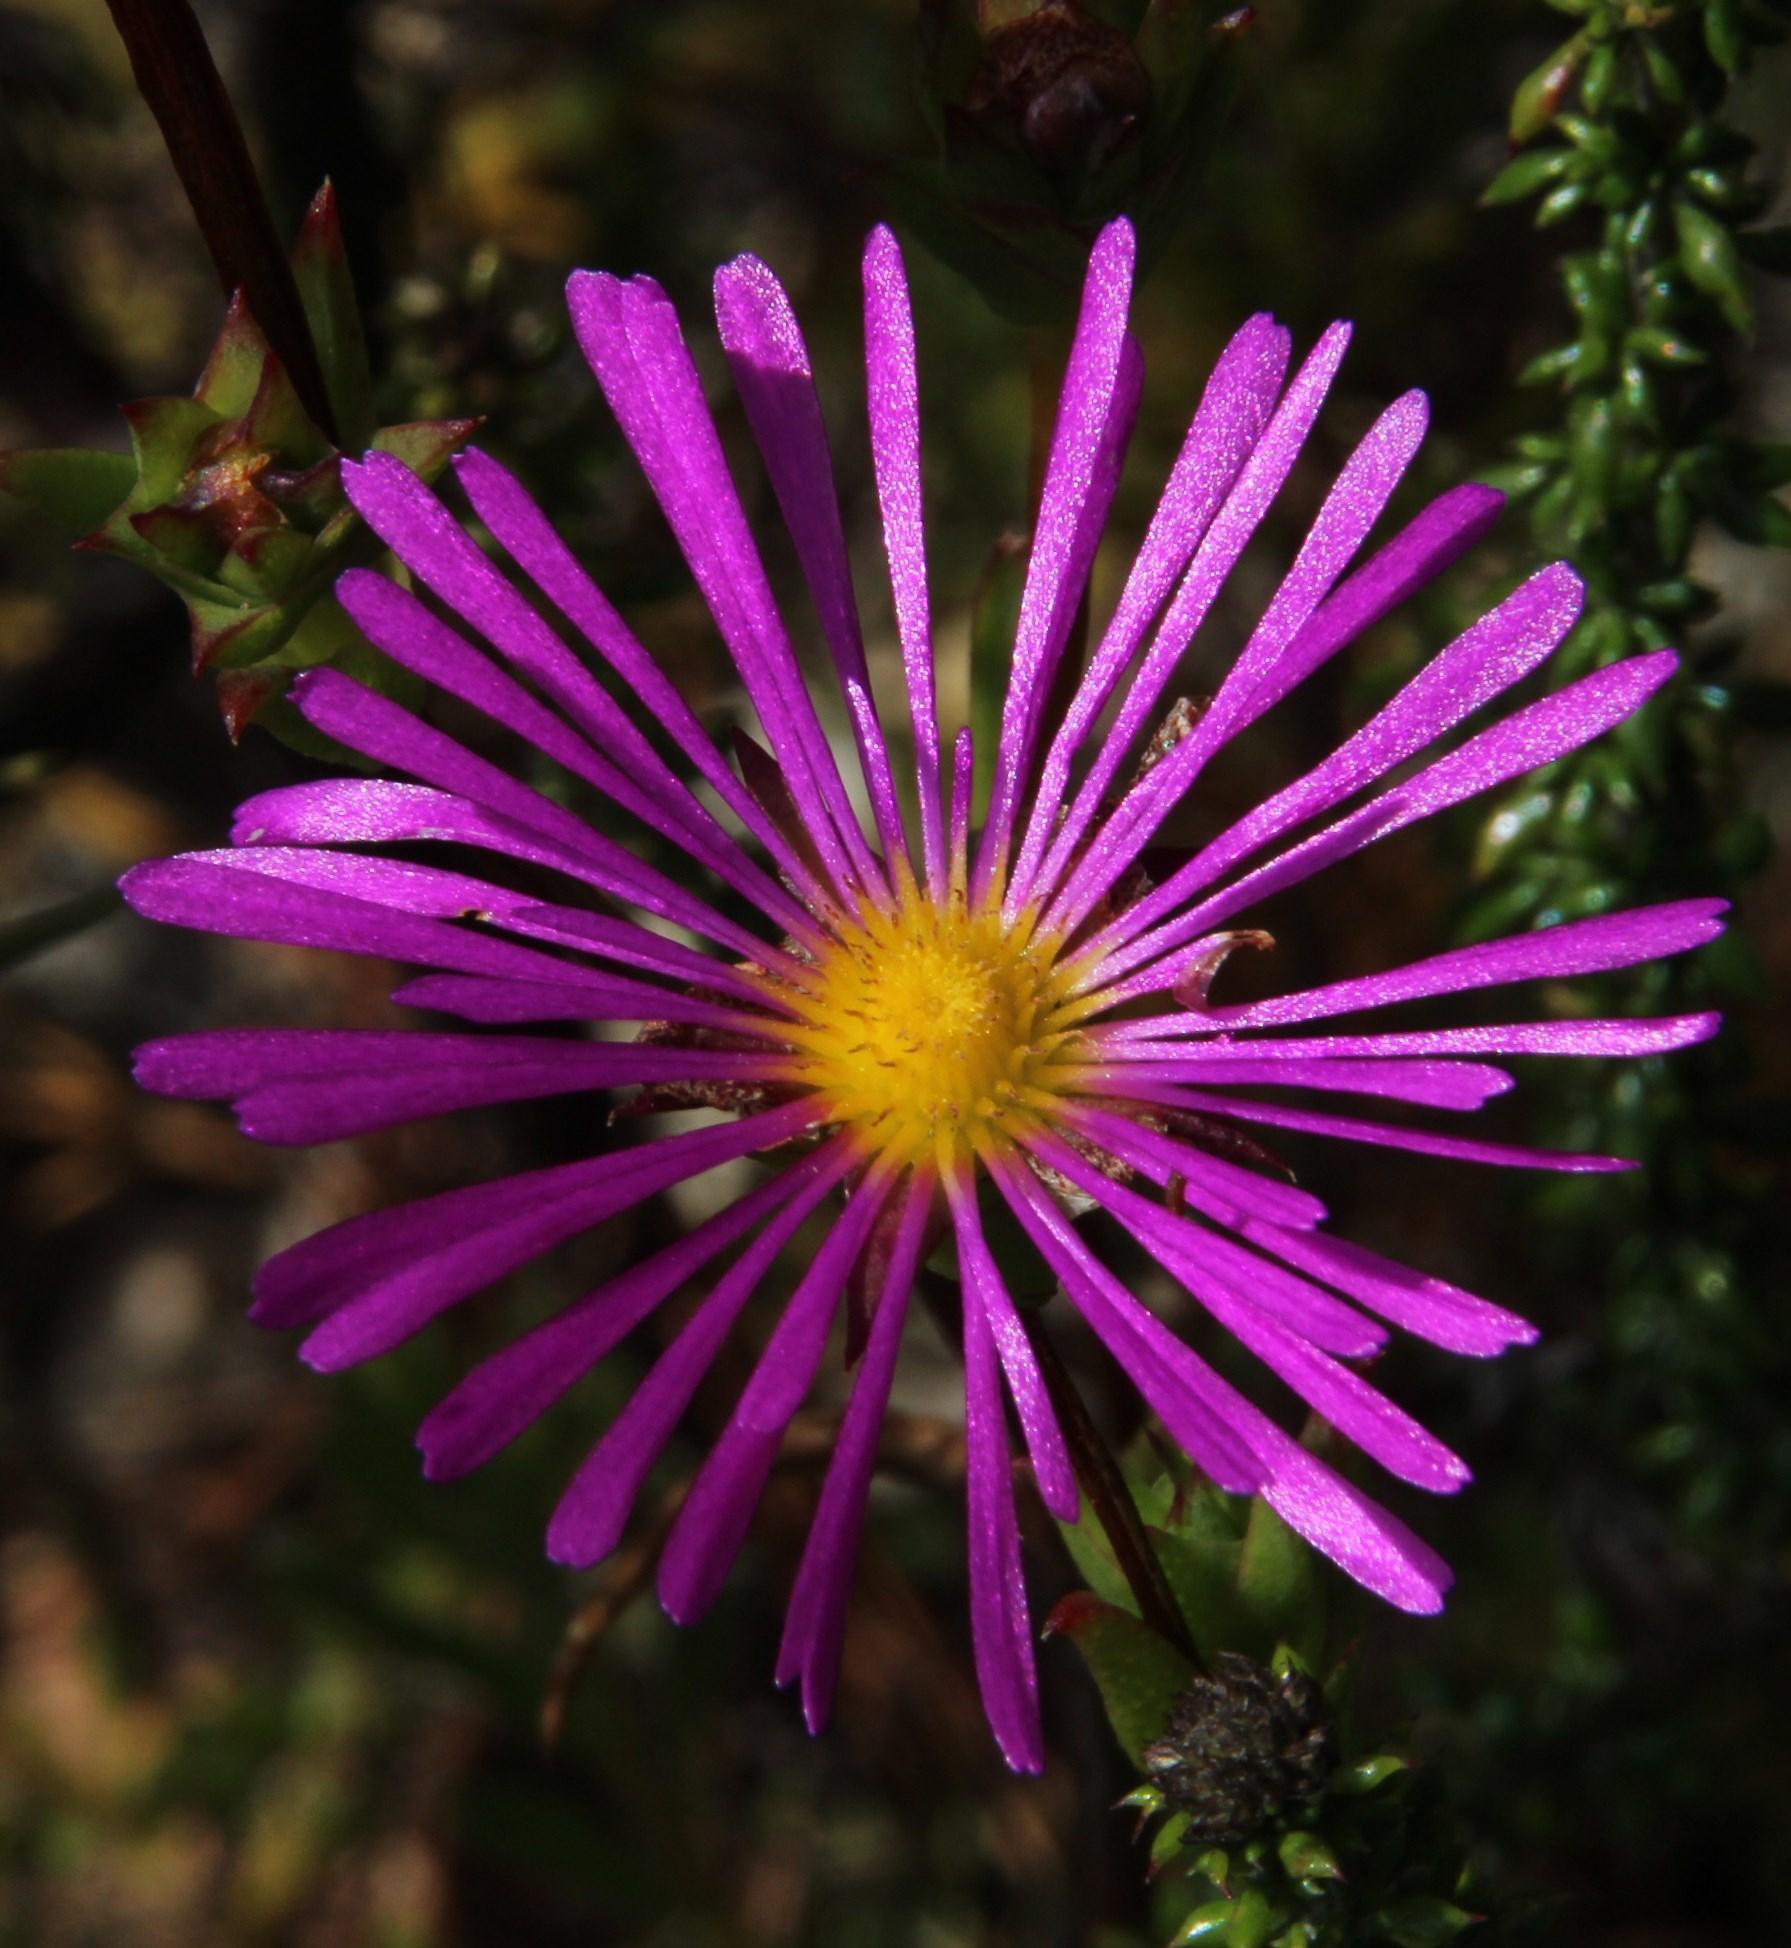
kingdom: Plantae
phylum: Tracheophyta
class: Magnoliopsida
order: Caryophyllales
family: Aizoaceae
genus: Erepsia
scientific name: Erepsia anceps
